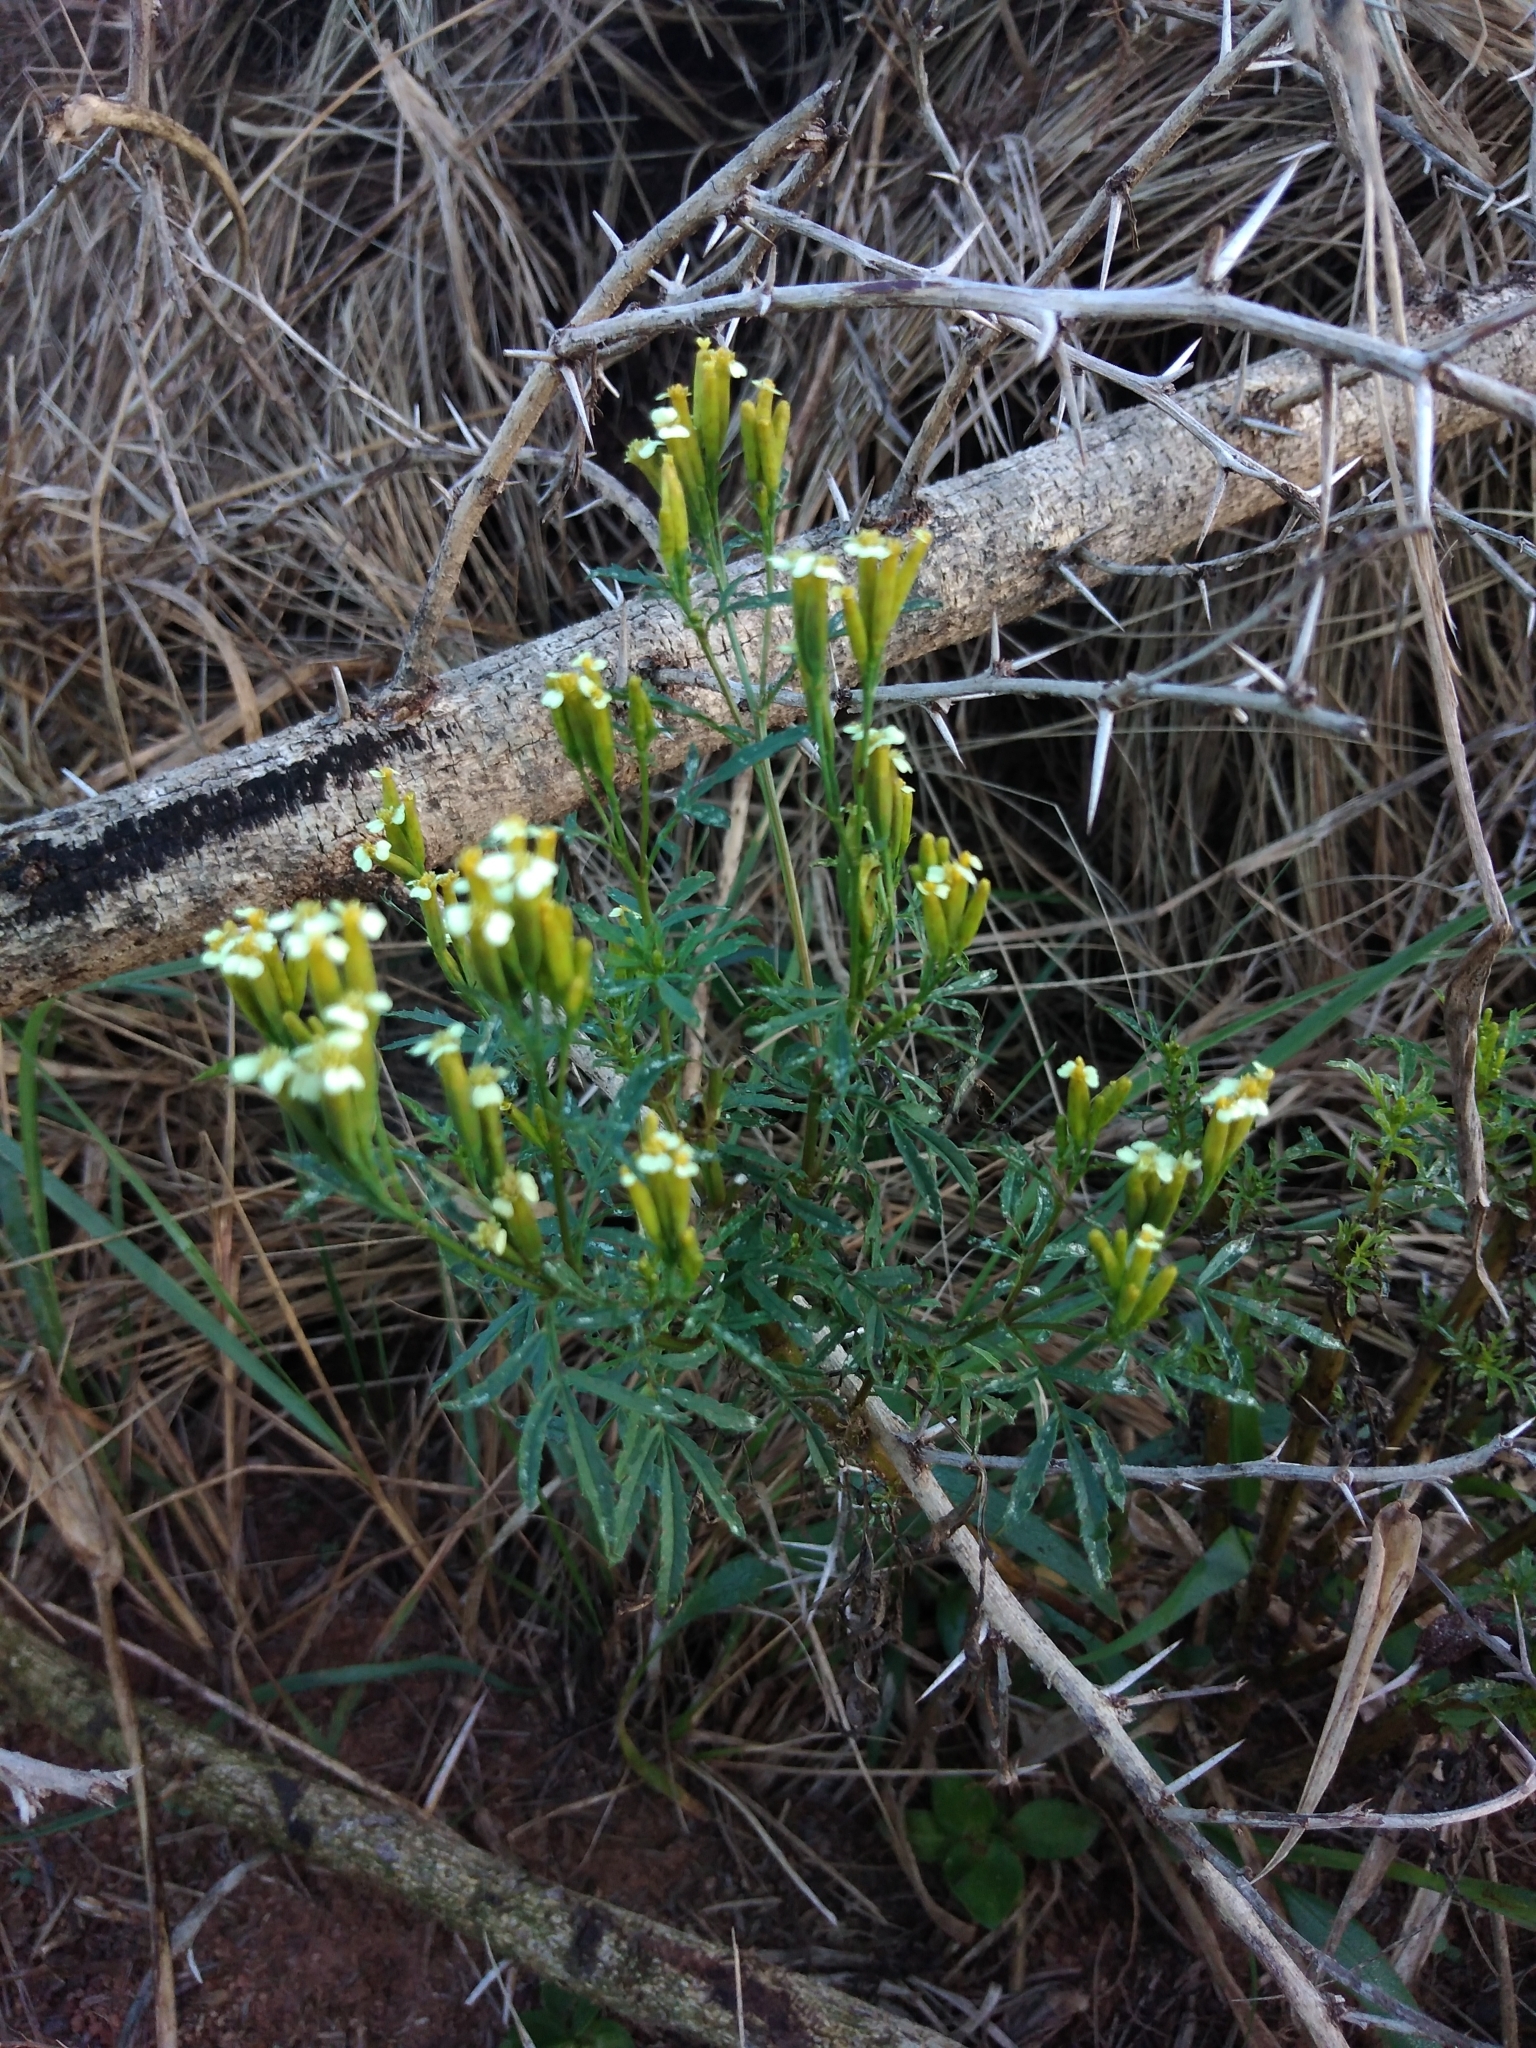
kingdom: Plantae
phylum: Tracheophyta
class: Magnoliopsida
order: Asterales
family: Asteraceae
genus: Tagetes
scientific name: Tagetes minuta
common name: Muster john henry
